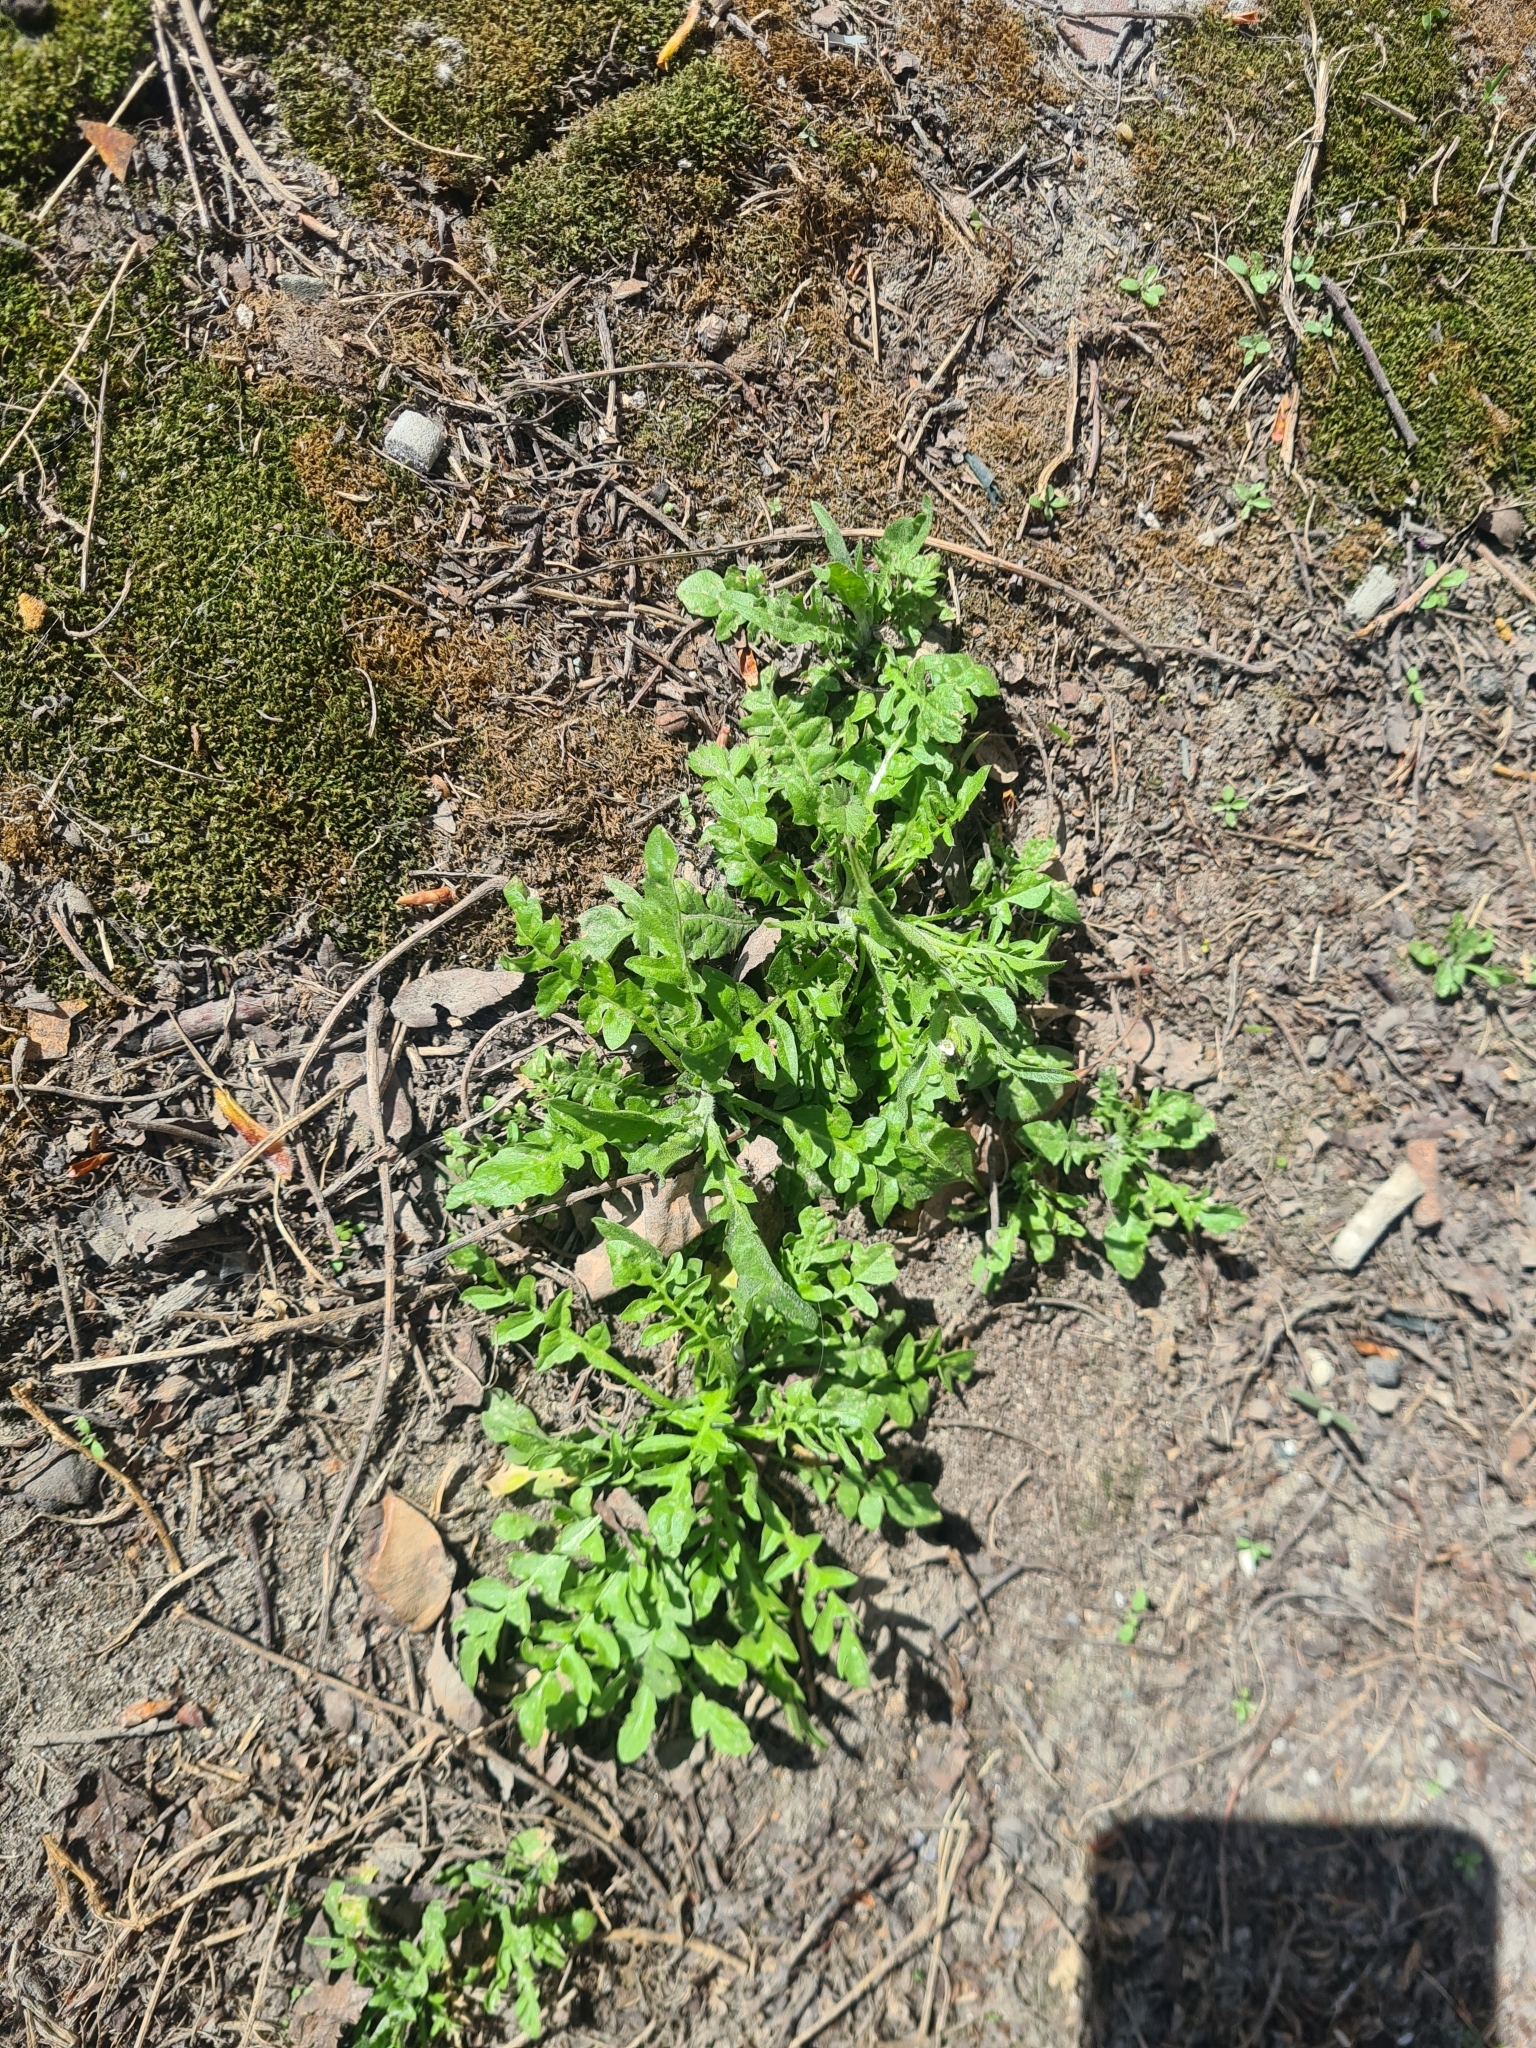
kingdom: Plantae
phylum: Tracheophyta
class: Magnoliopsida
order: Brassicales
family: Brassicaceae
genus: Capsella
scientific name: Capsella bursa-pastoris
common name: Shepherd's purse
